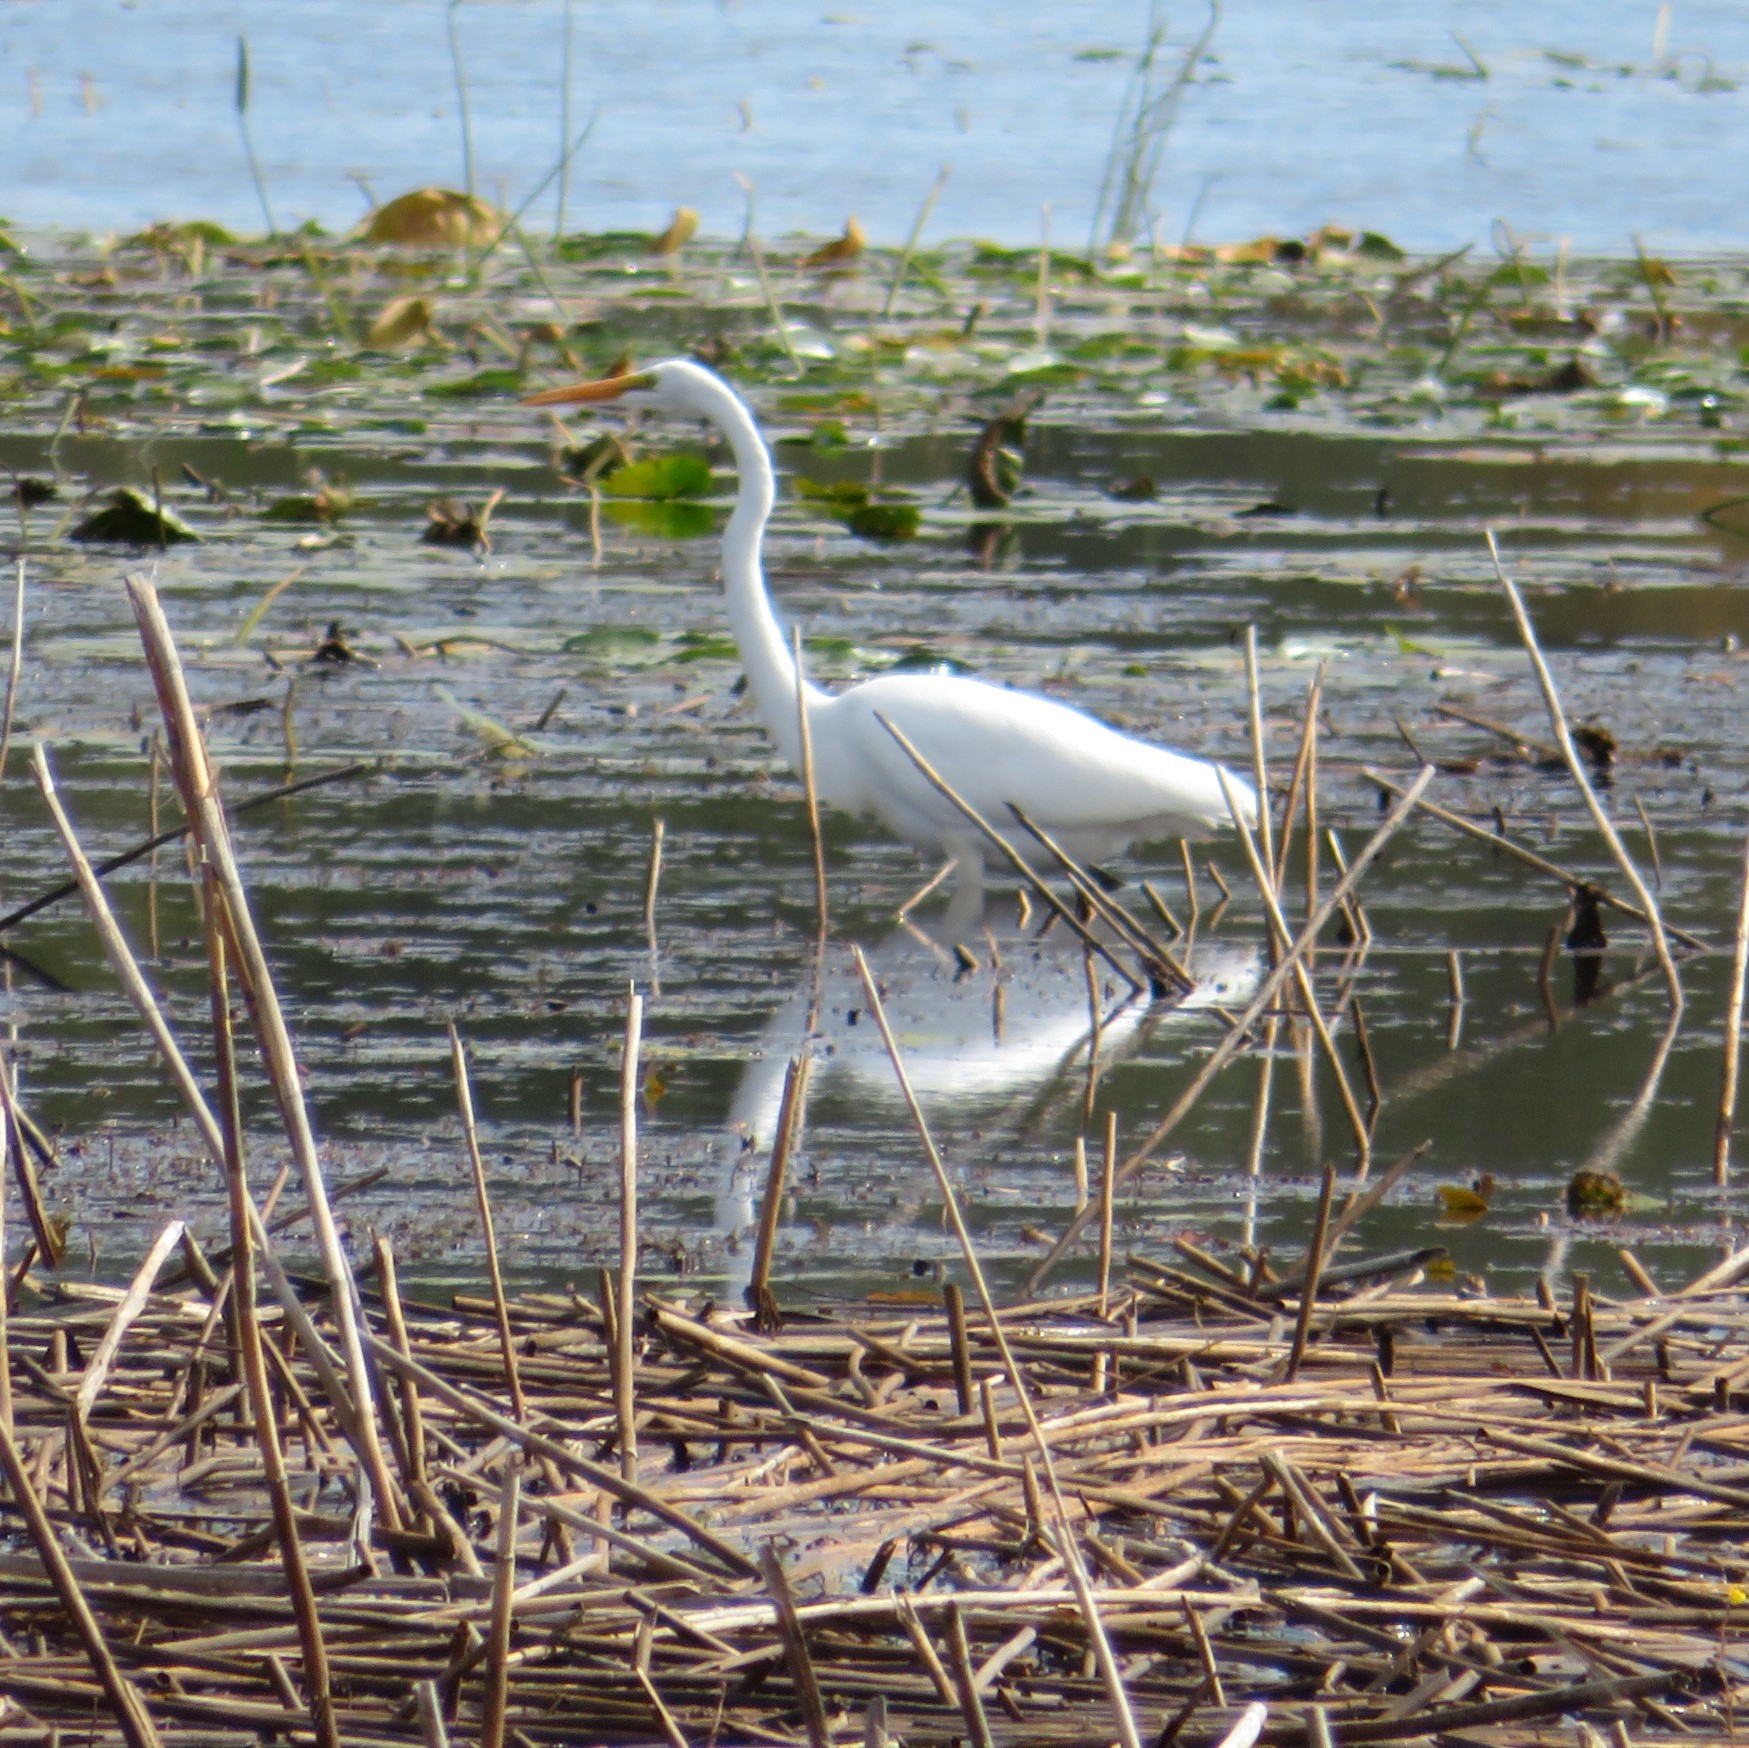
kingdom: Animalia
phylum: Chordata
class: Aves
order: Pelecaniformes
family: Ardeidae
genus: Ardea
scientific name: Ardea alba
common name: Great egret
